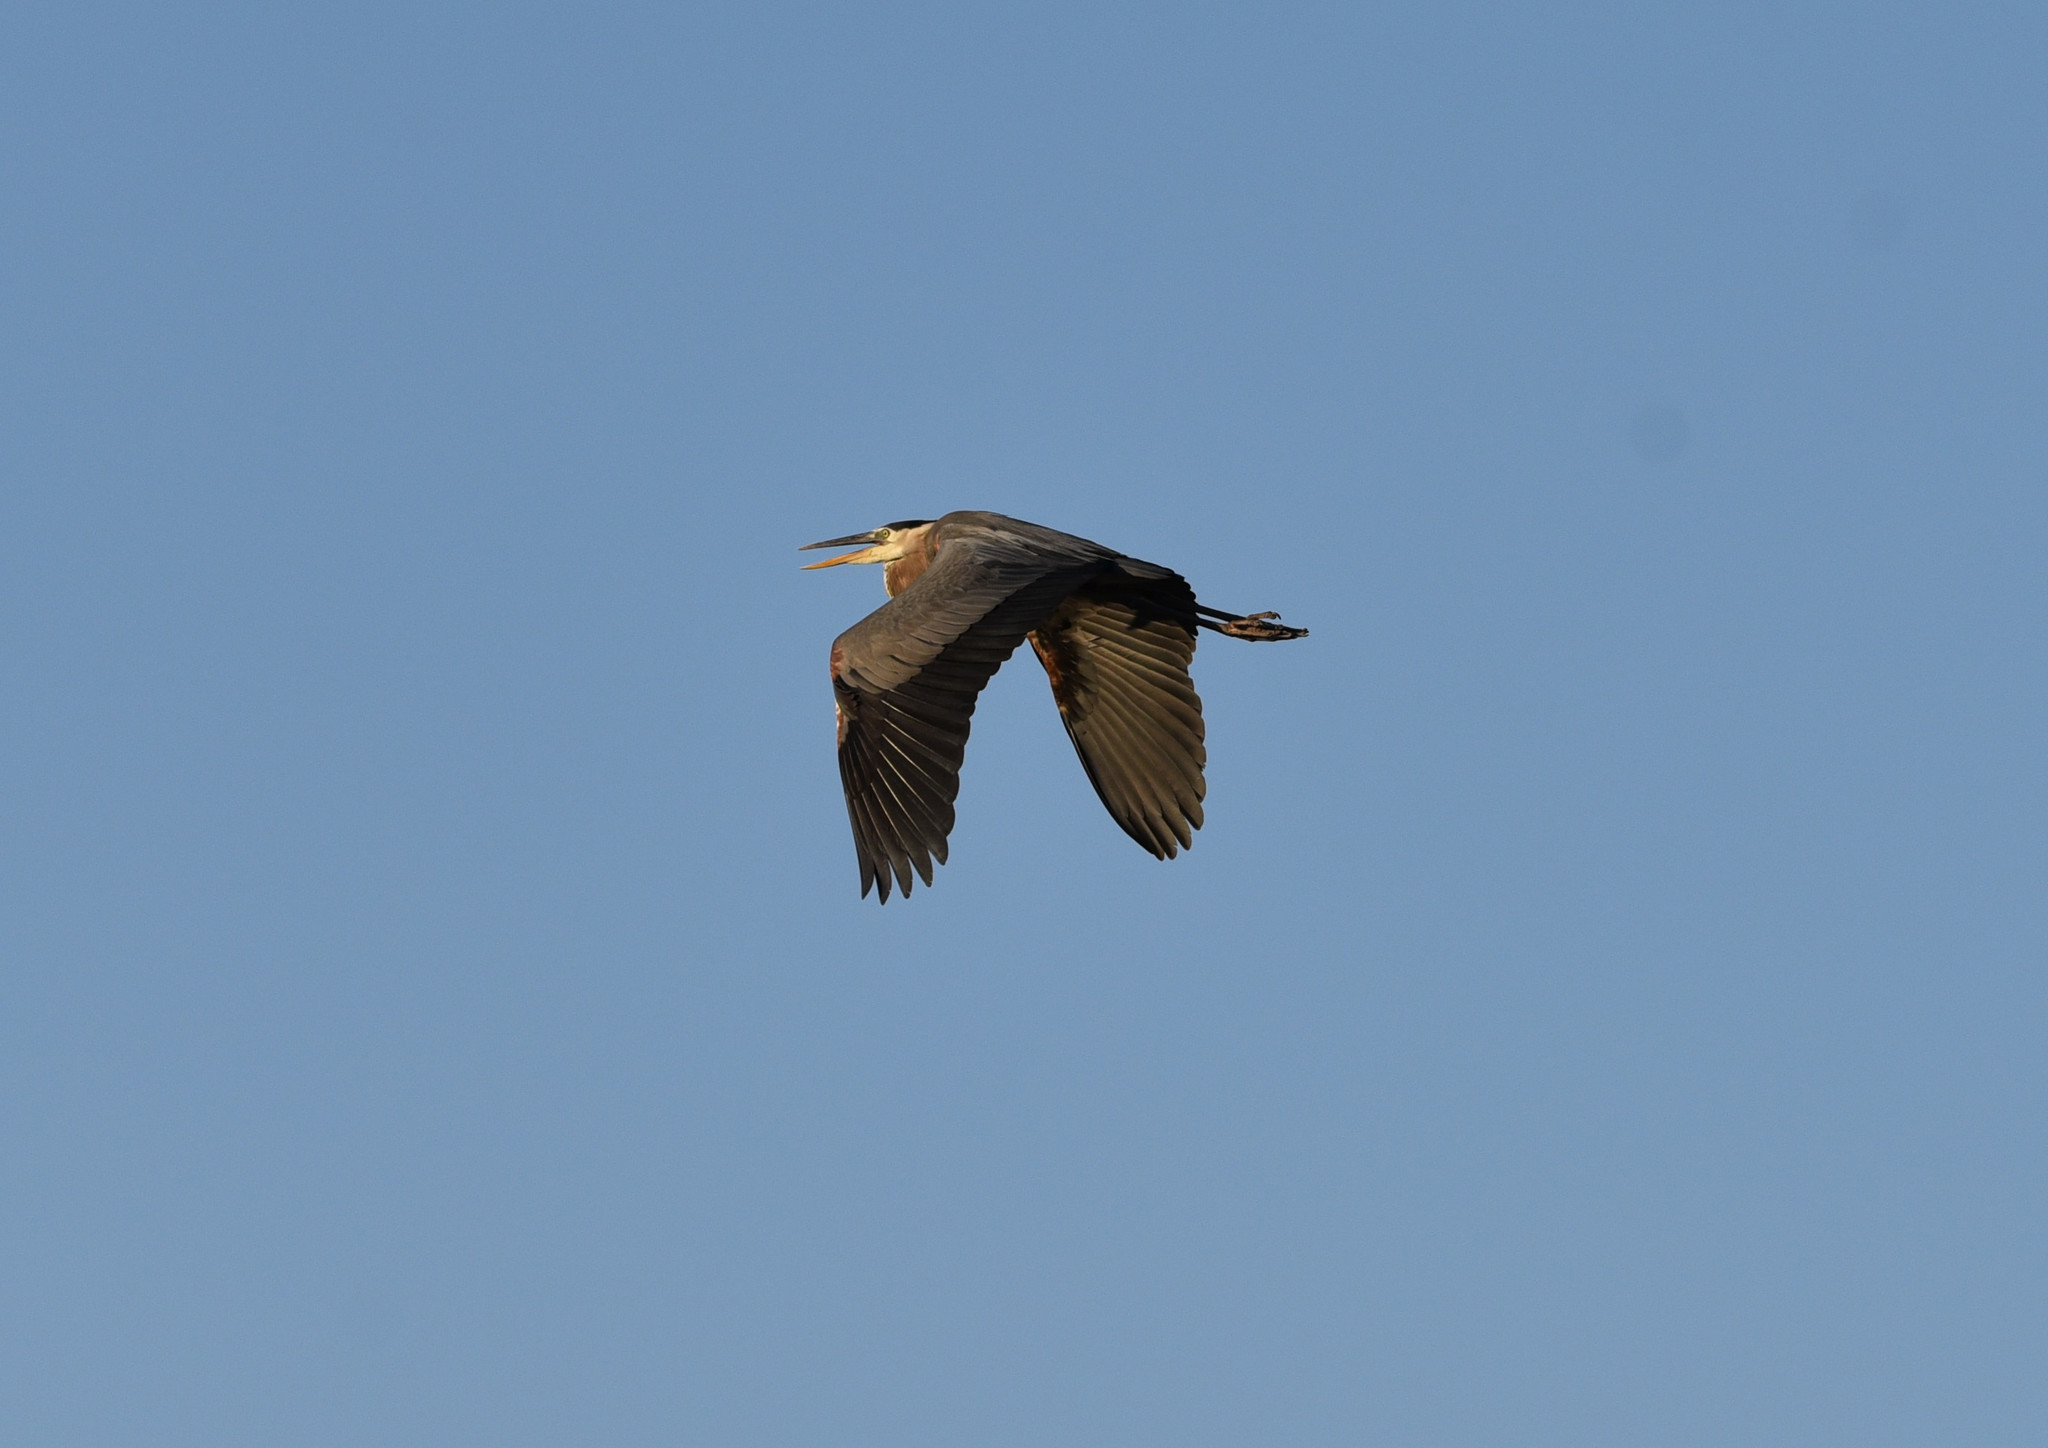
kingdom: Animalia
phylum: Chordata
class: Aves
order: Pelecaniformes
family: Ardeidae
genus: Ardea
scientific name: Ardea herodias
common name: Great blue heron
